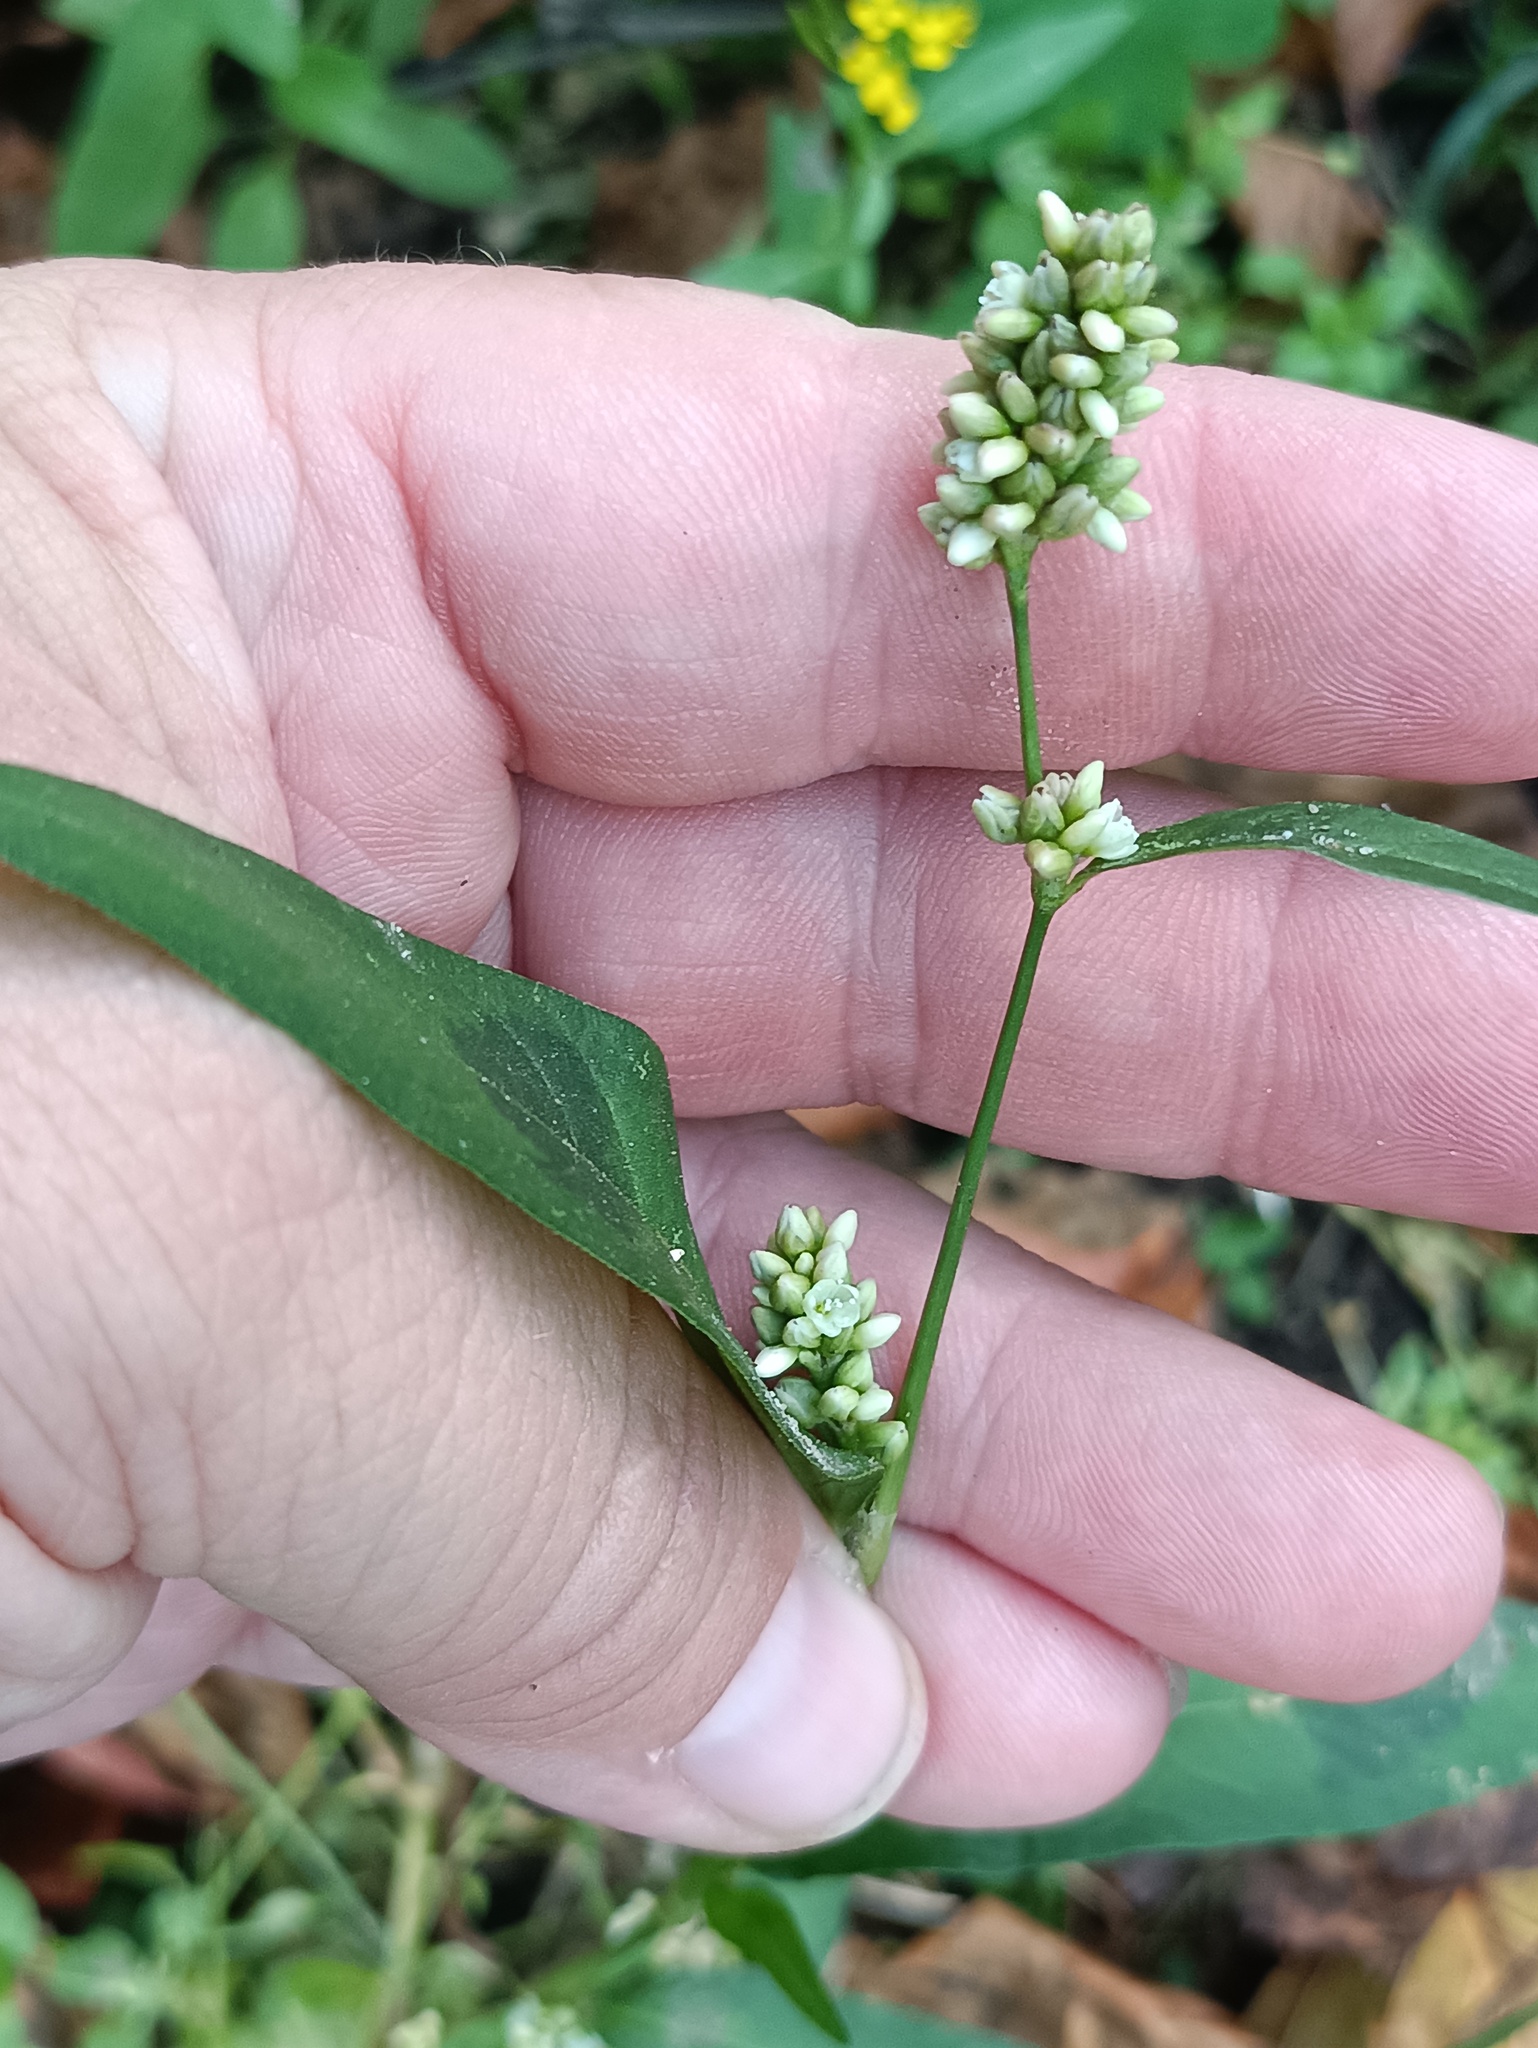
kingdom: Plantae
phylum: Tracheophyta
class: Magnoliopsida
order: Caryophyllales
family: Polygonaceae
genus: Persicaria
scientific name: Persicaria lapathifolia
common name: Curlytop knotweed
